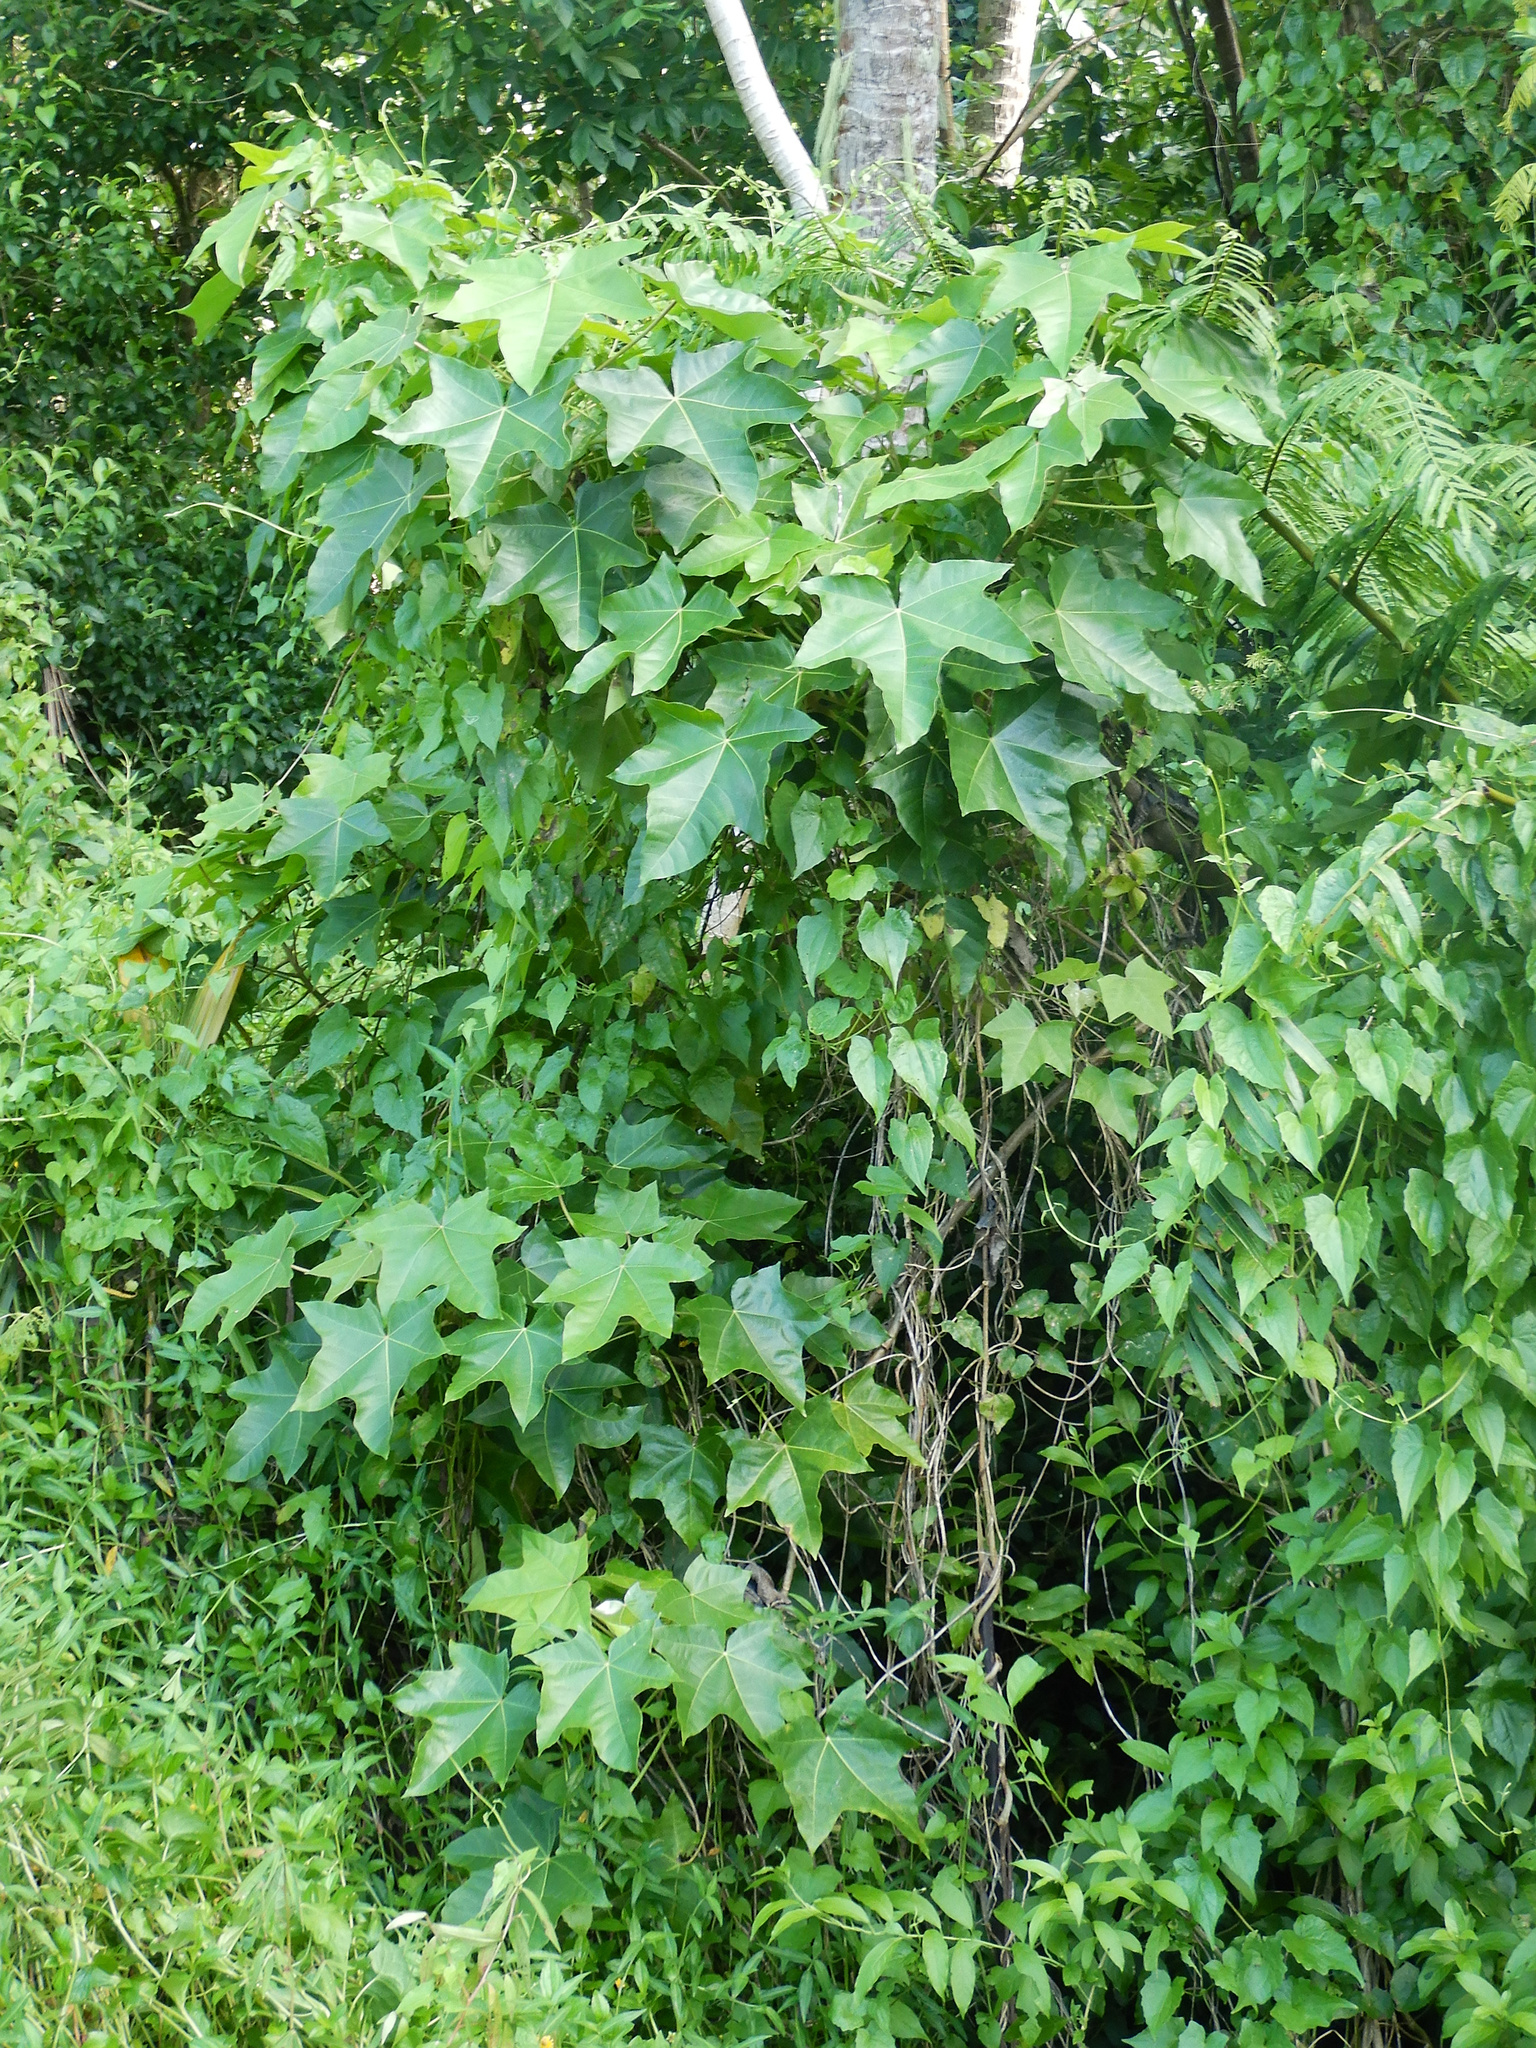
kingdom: Plantae
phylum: Tracheophyta
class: Magnoliopsida
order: Malpighiales
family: Euphorbiaceae
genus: Aleurites
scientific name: Aleurites moluccanus
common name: Candlenut tree
